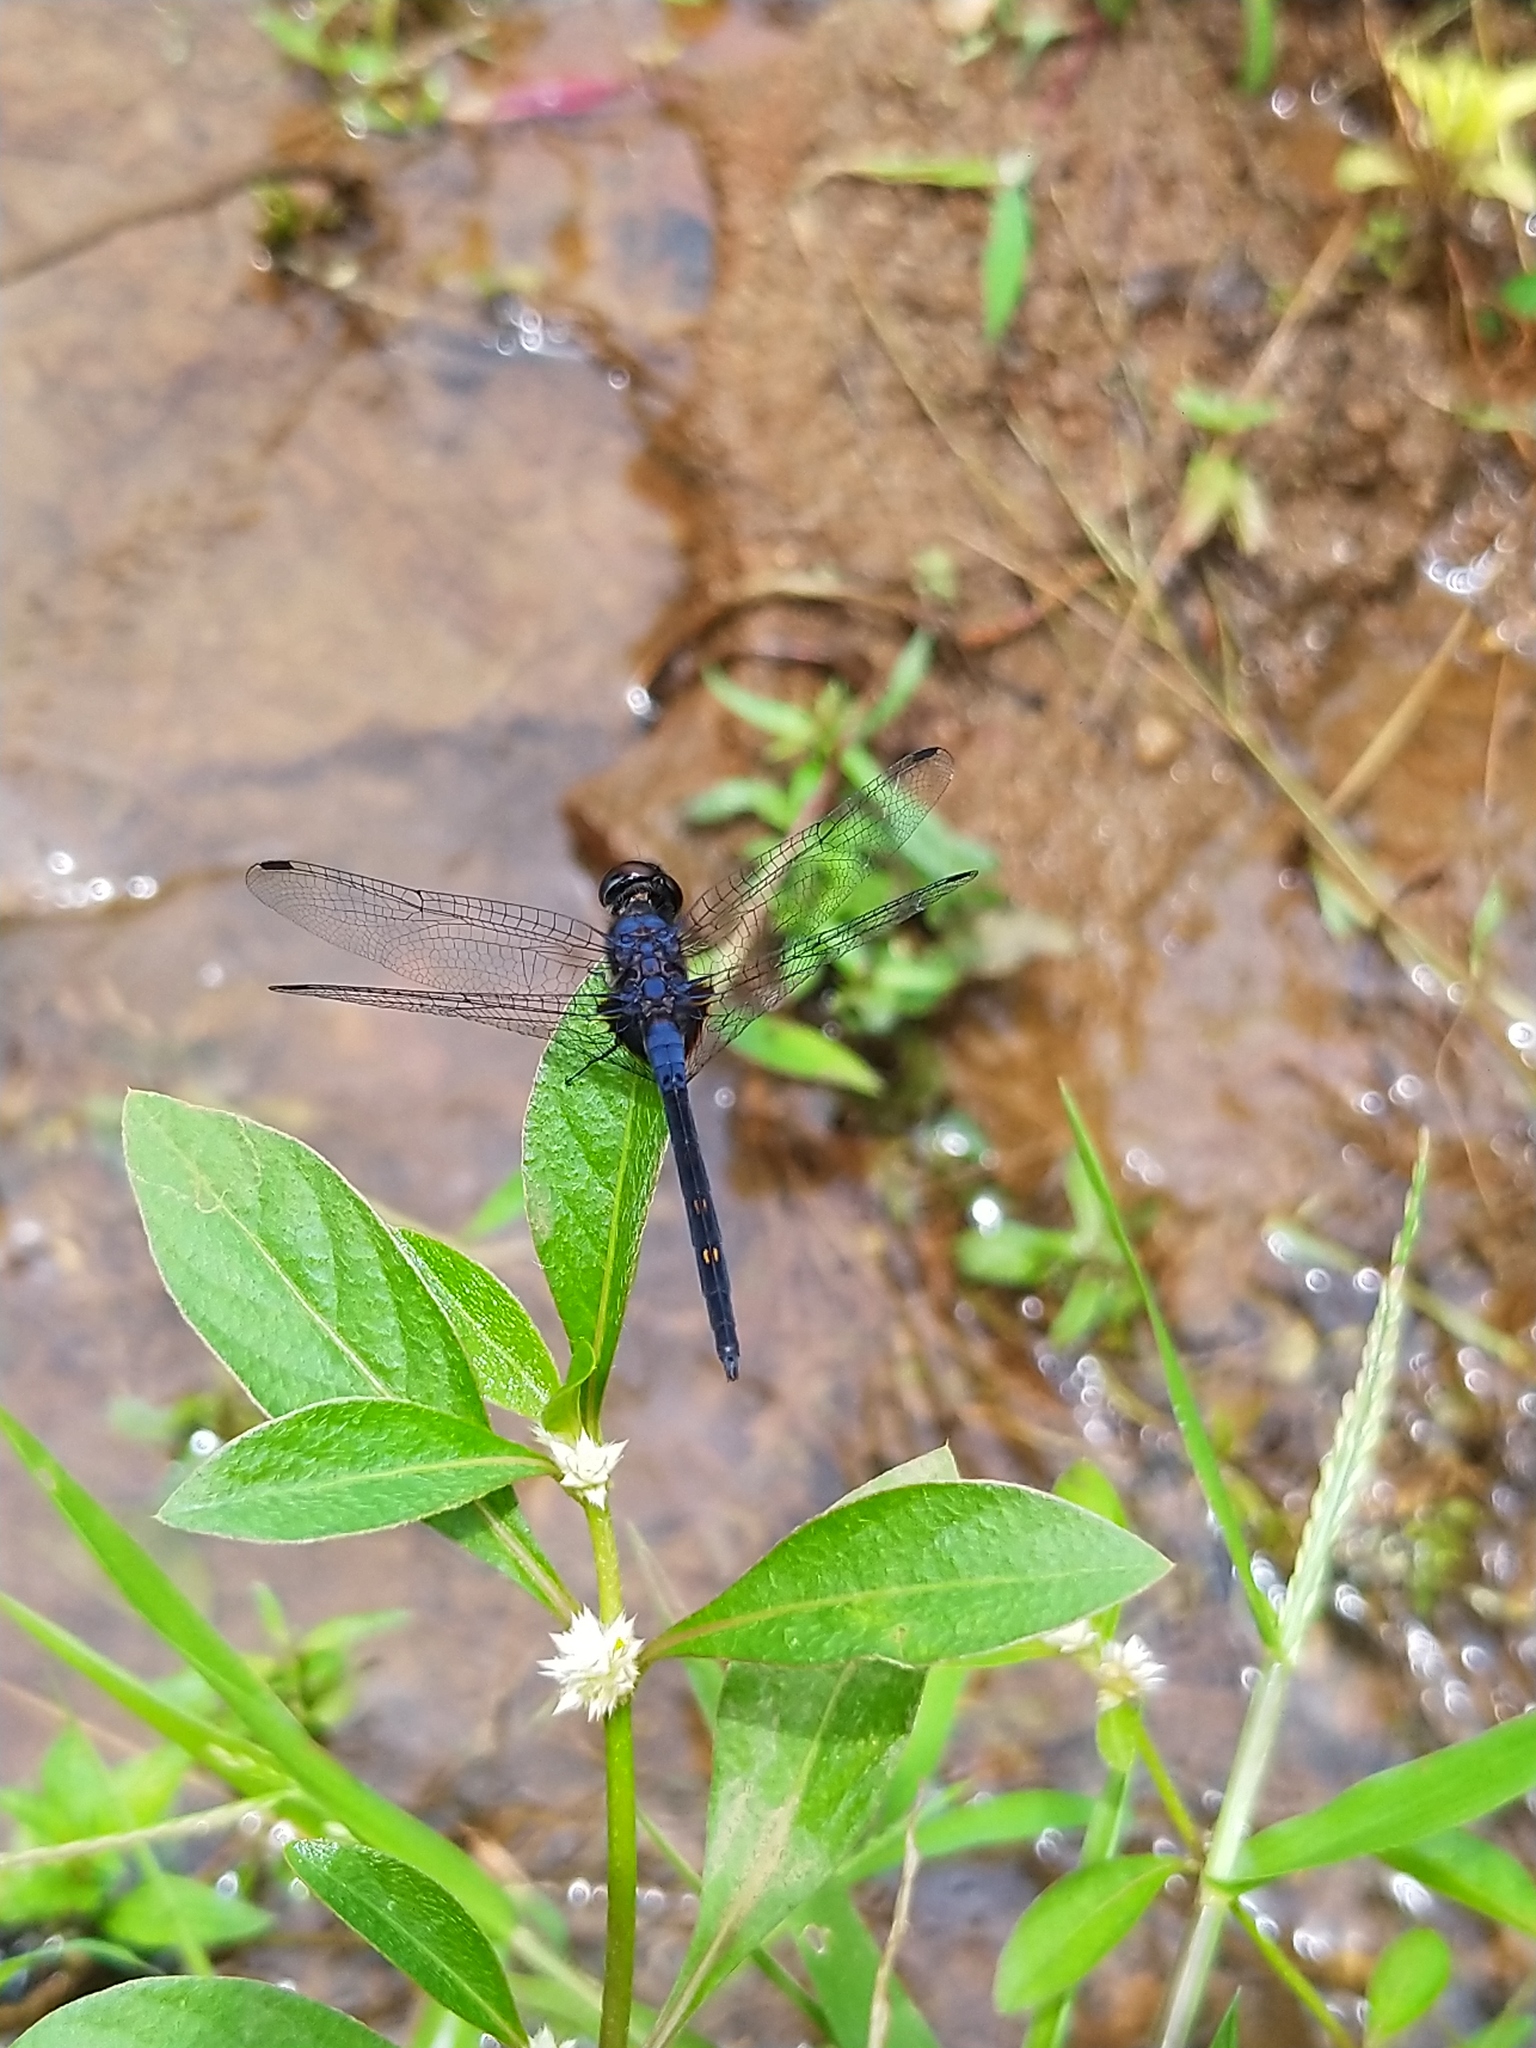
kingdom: Animalia
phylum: Arthropoda
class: Insecta
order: Odonata
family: Libellulidae
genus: Trithemis
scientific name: Trithemis festiva
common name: Indigo dropwing
